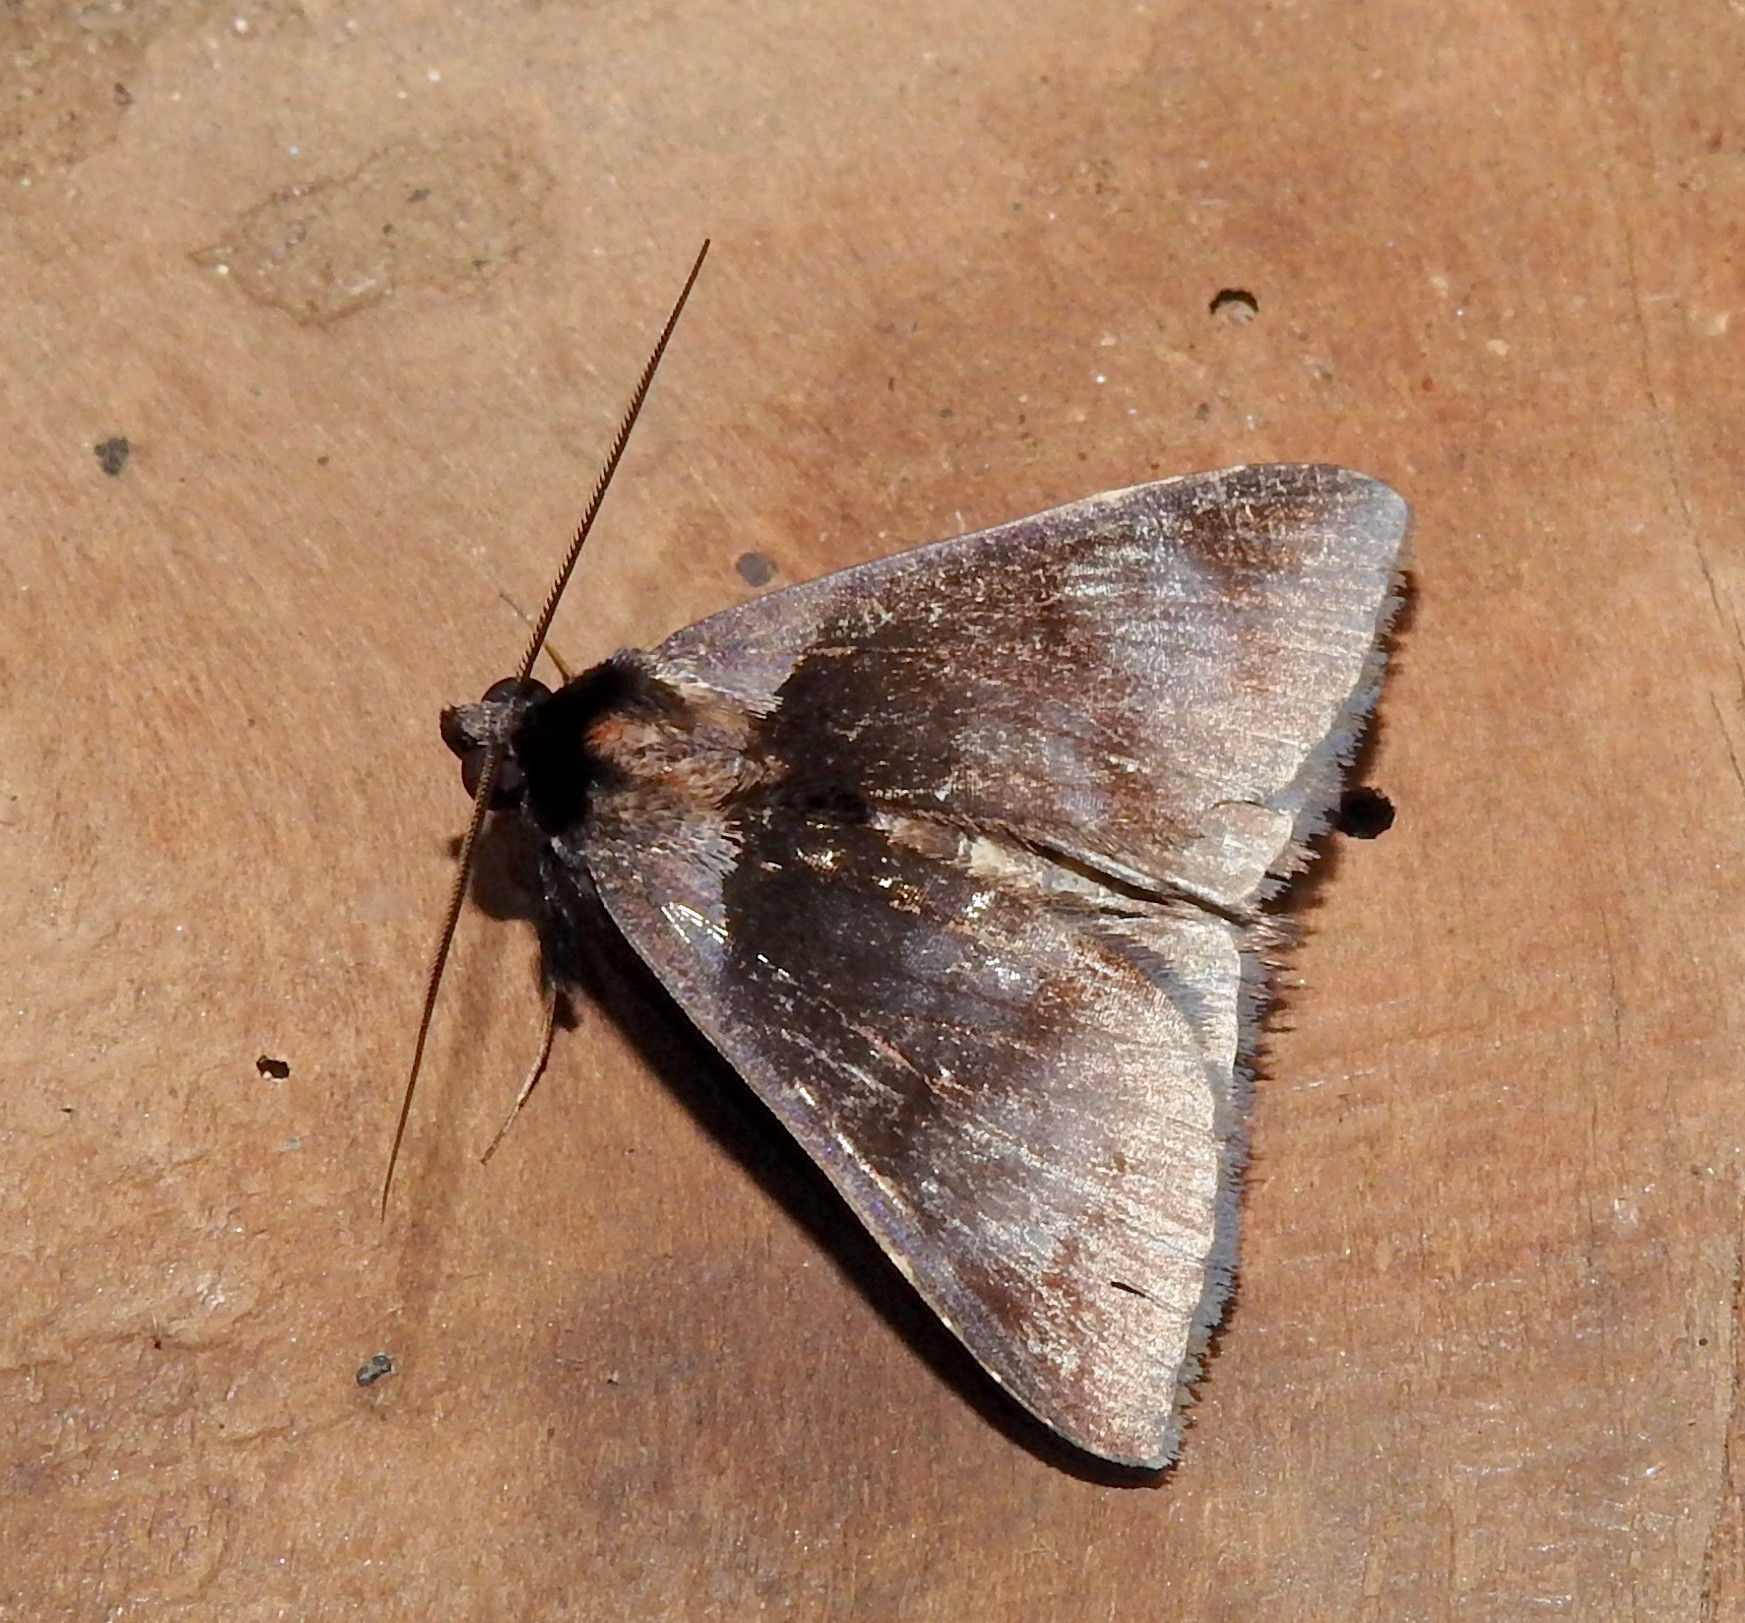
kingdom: Animalia
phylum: Arthropoda
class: Insecta
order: Lepidoptera
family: Erebidae
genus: Crithote
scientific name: Crithote pallivaga
